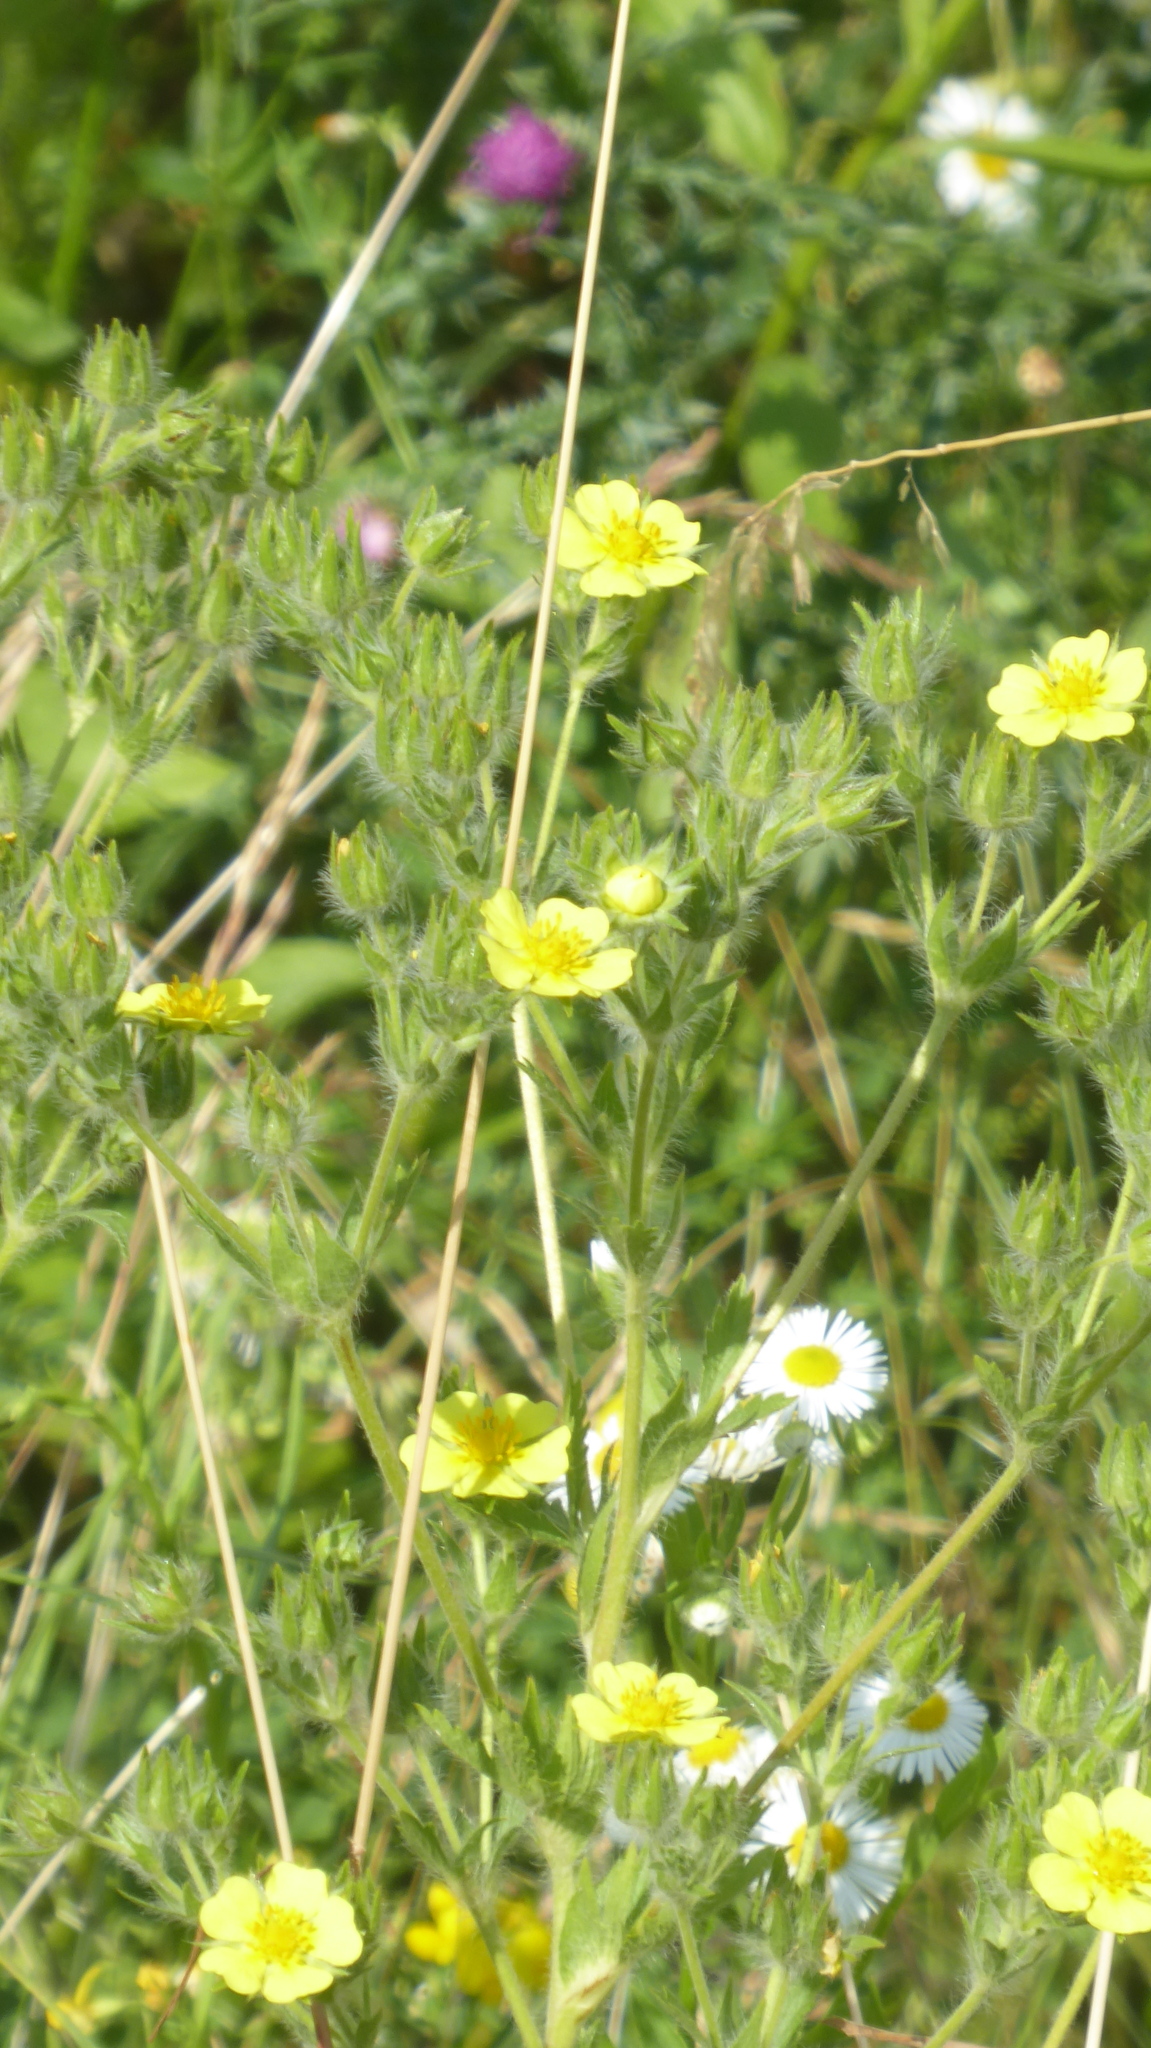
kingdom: Plantae
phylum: Tracheophyta
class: Magnoliopsida
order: Rosales
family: Rosaceae
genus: Potentilla
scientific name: Potentilla recta
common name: Sulphur cinquefoil
